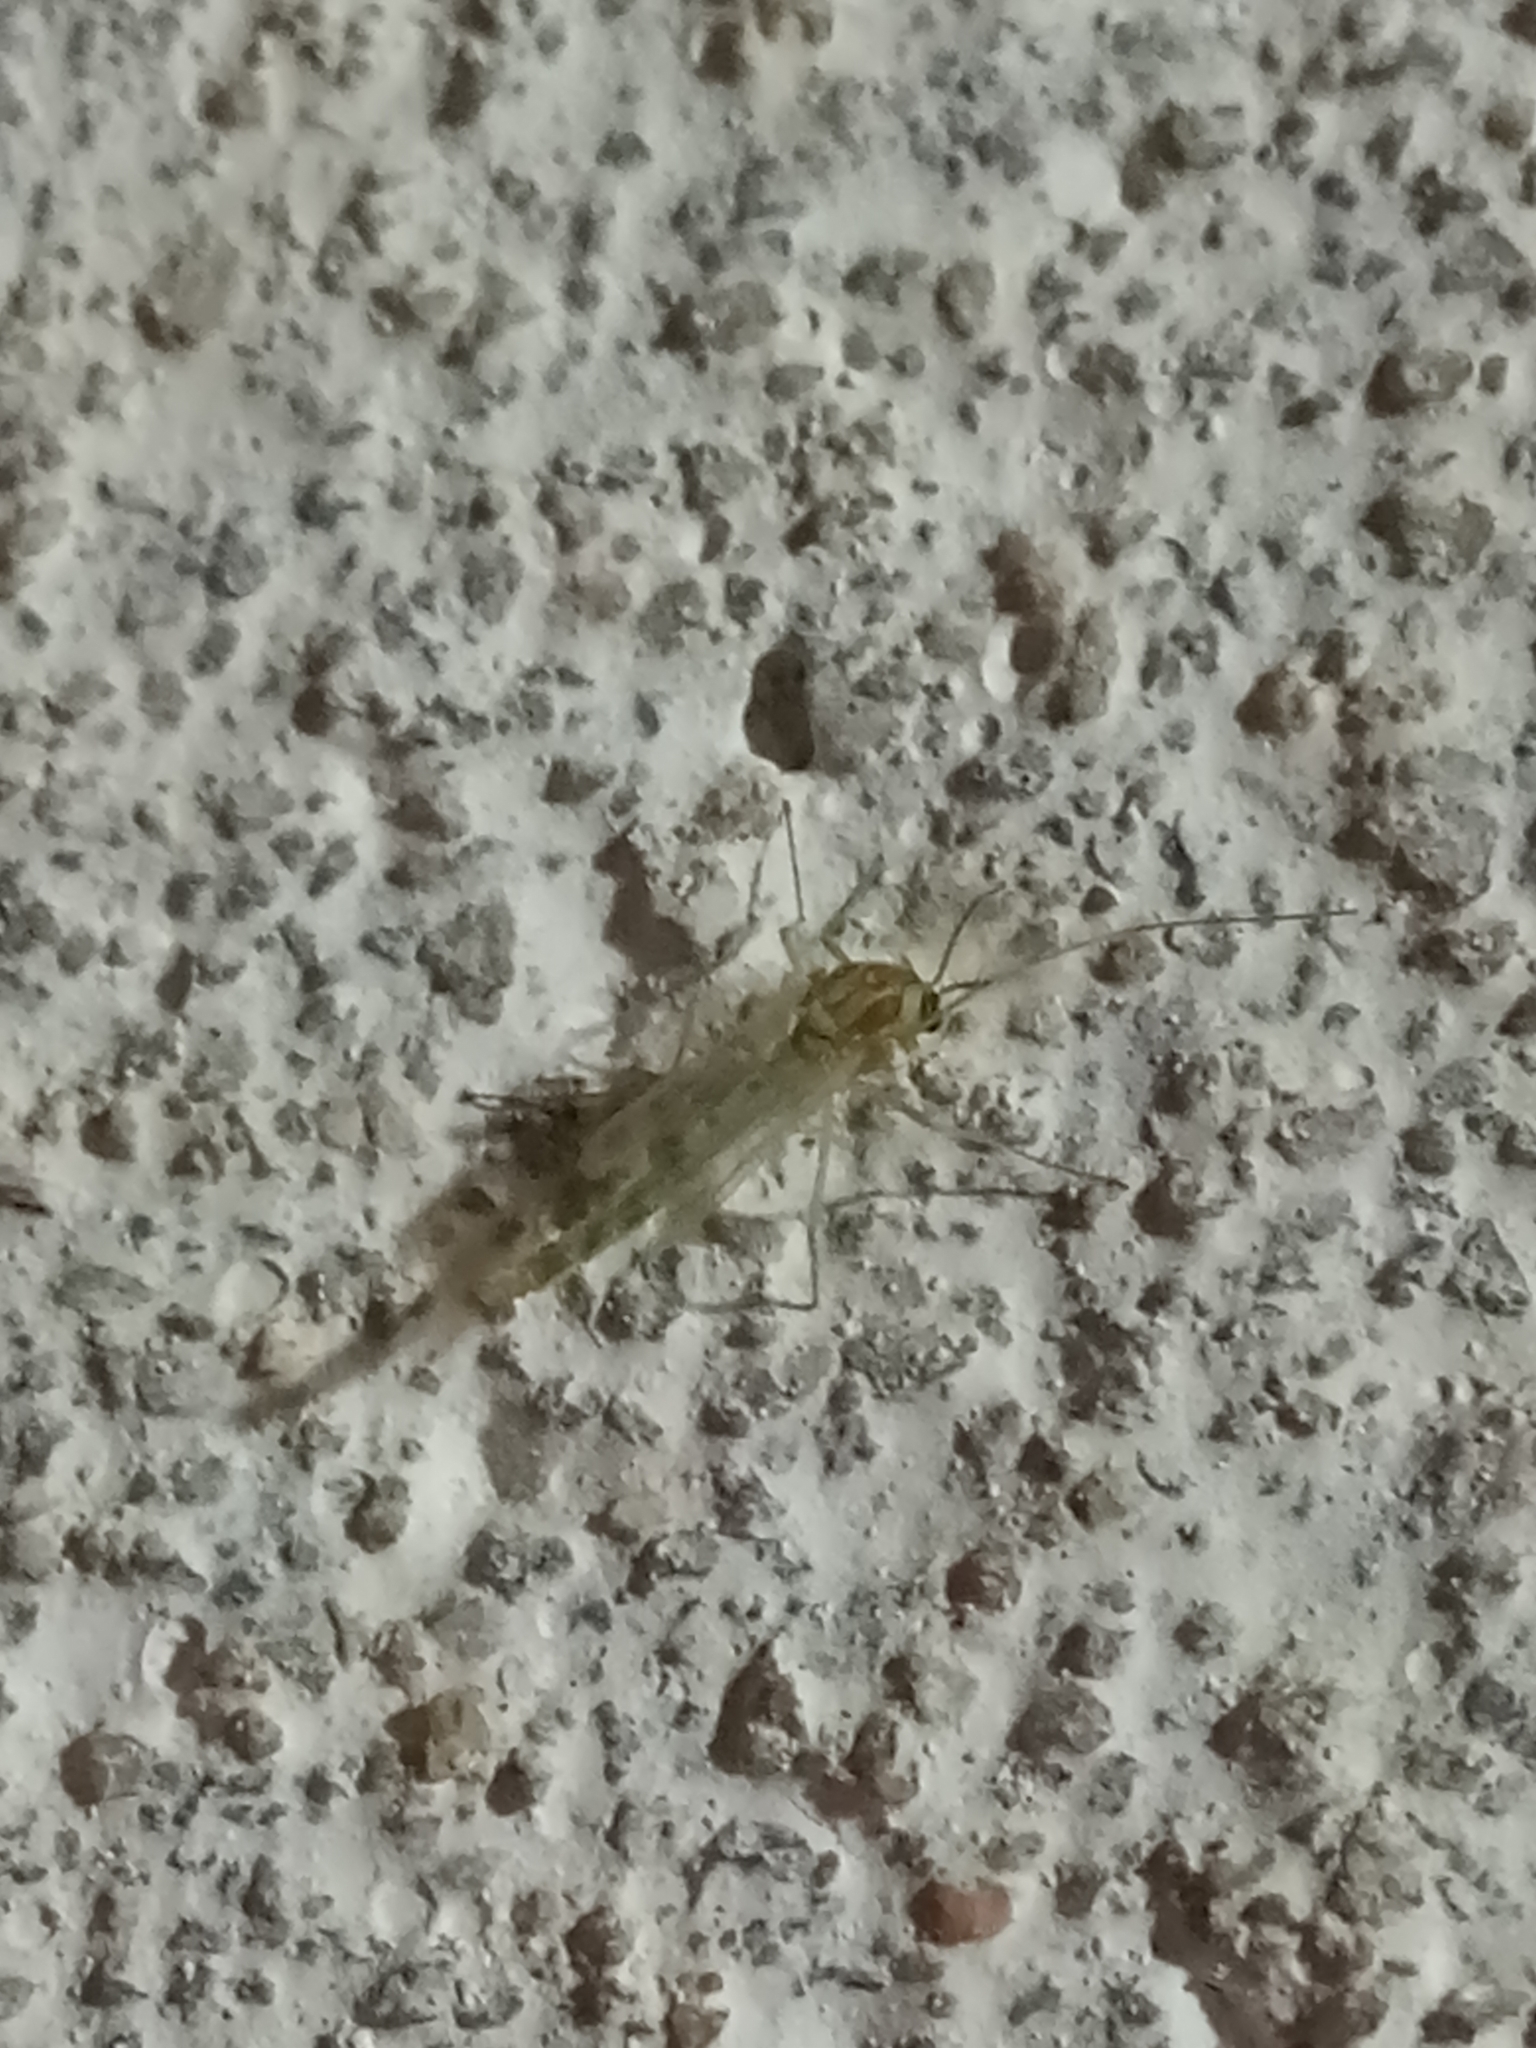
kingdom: Animalia
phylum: Arthropoda
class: Insecta
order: Diptera
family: Chironomidae
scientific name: Chironomidae
